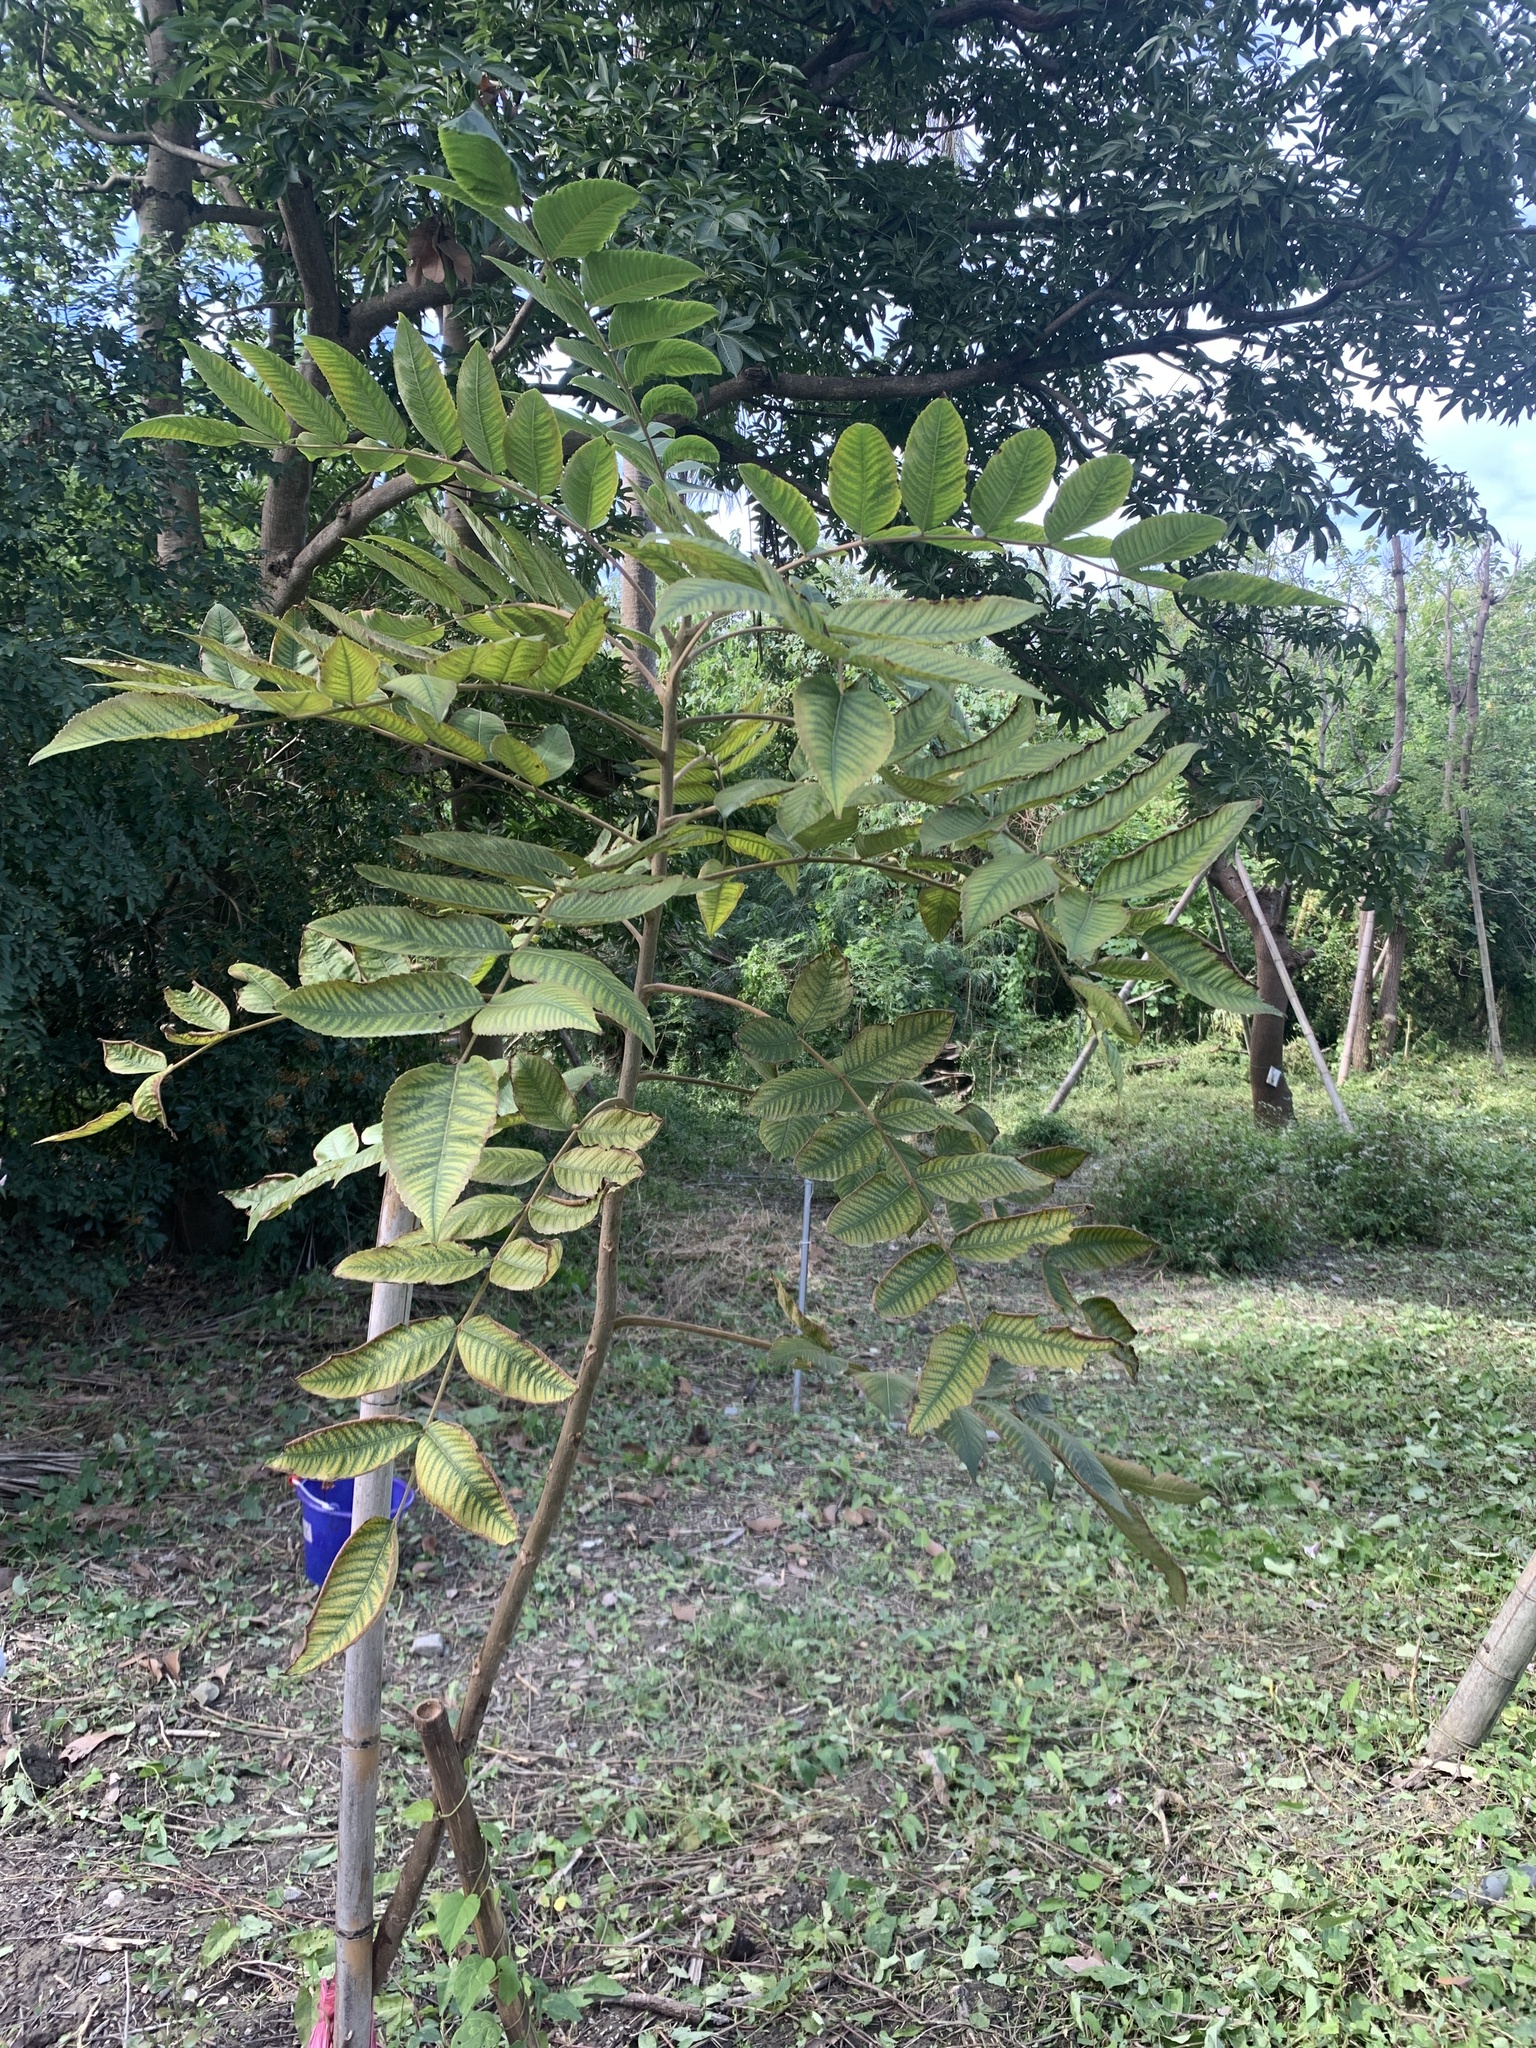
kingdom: Plantae
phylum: Tracheophyta
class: Magnoliopsida
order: Sapindales
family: Anacardiaceae
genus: Rhus
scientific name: Rhus chinensis
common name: Chinese gall
